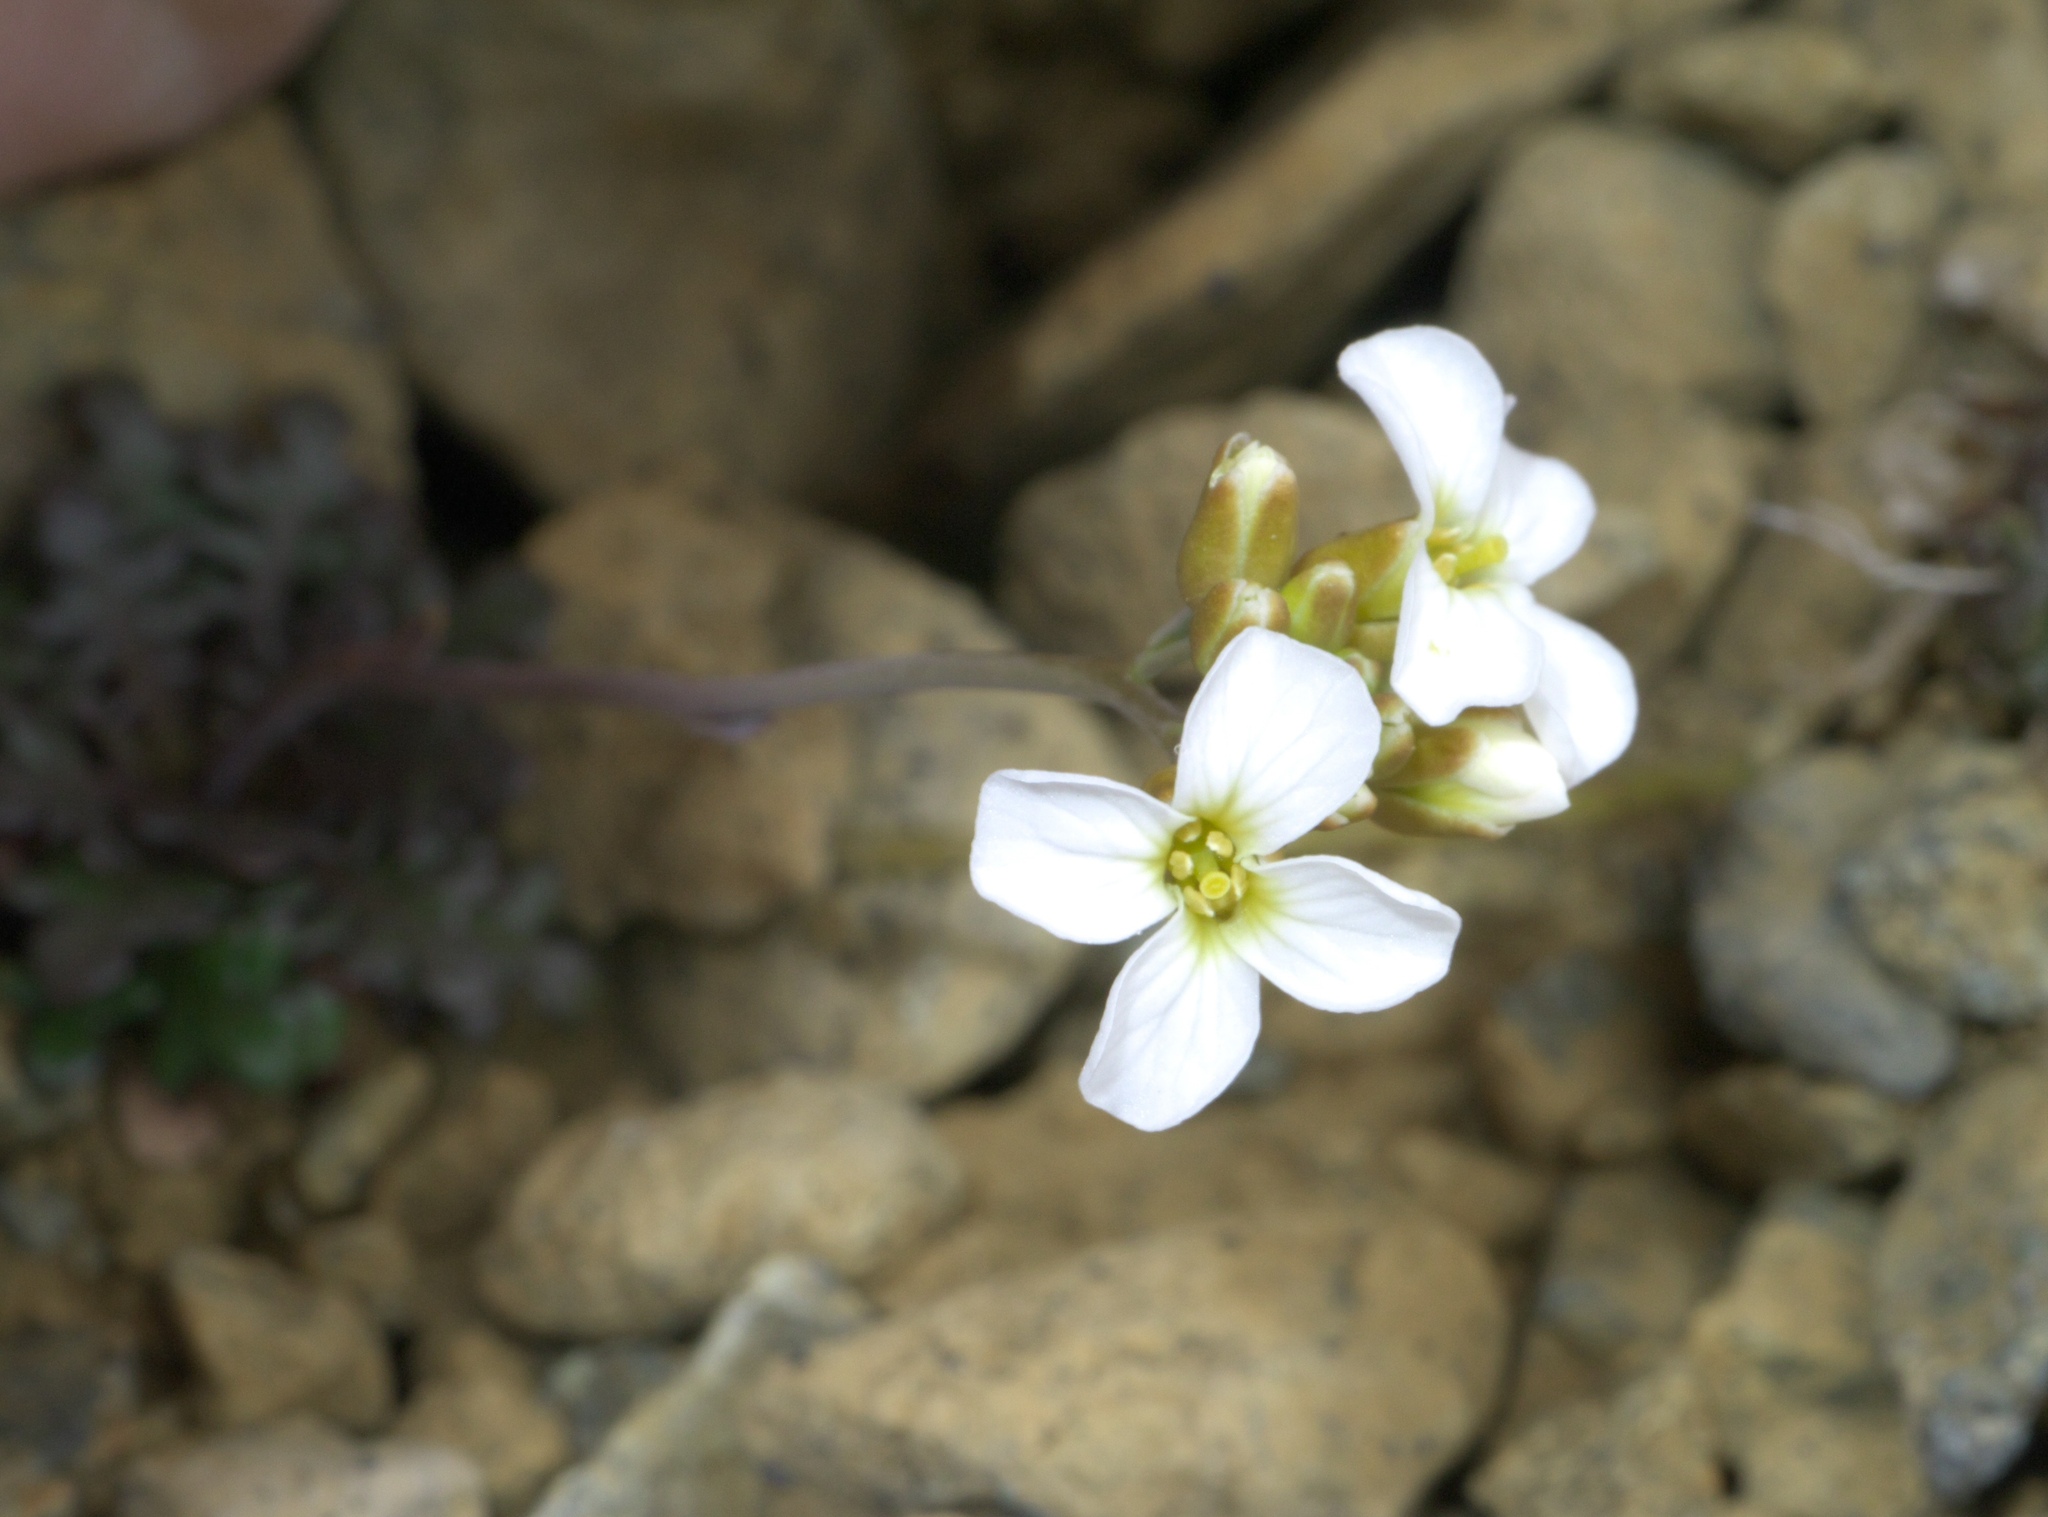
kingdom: Plantae
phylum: Tracheophyta
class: Magnoliopsida
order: Brassicales
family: Brassicaceae
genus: Arabidopsis
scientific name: Arabidopsis lyrata
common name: Lyrate rockcress
